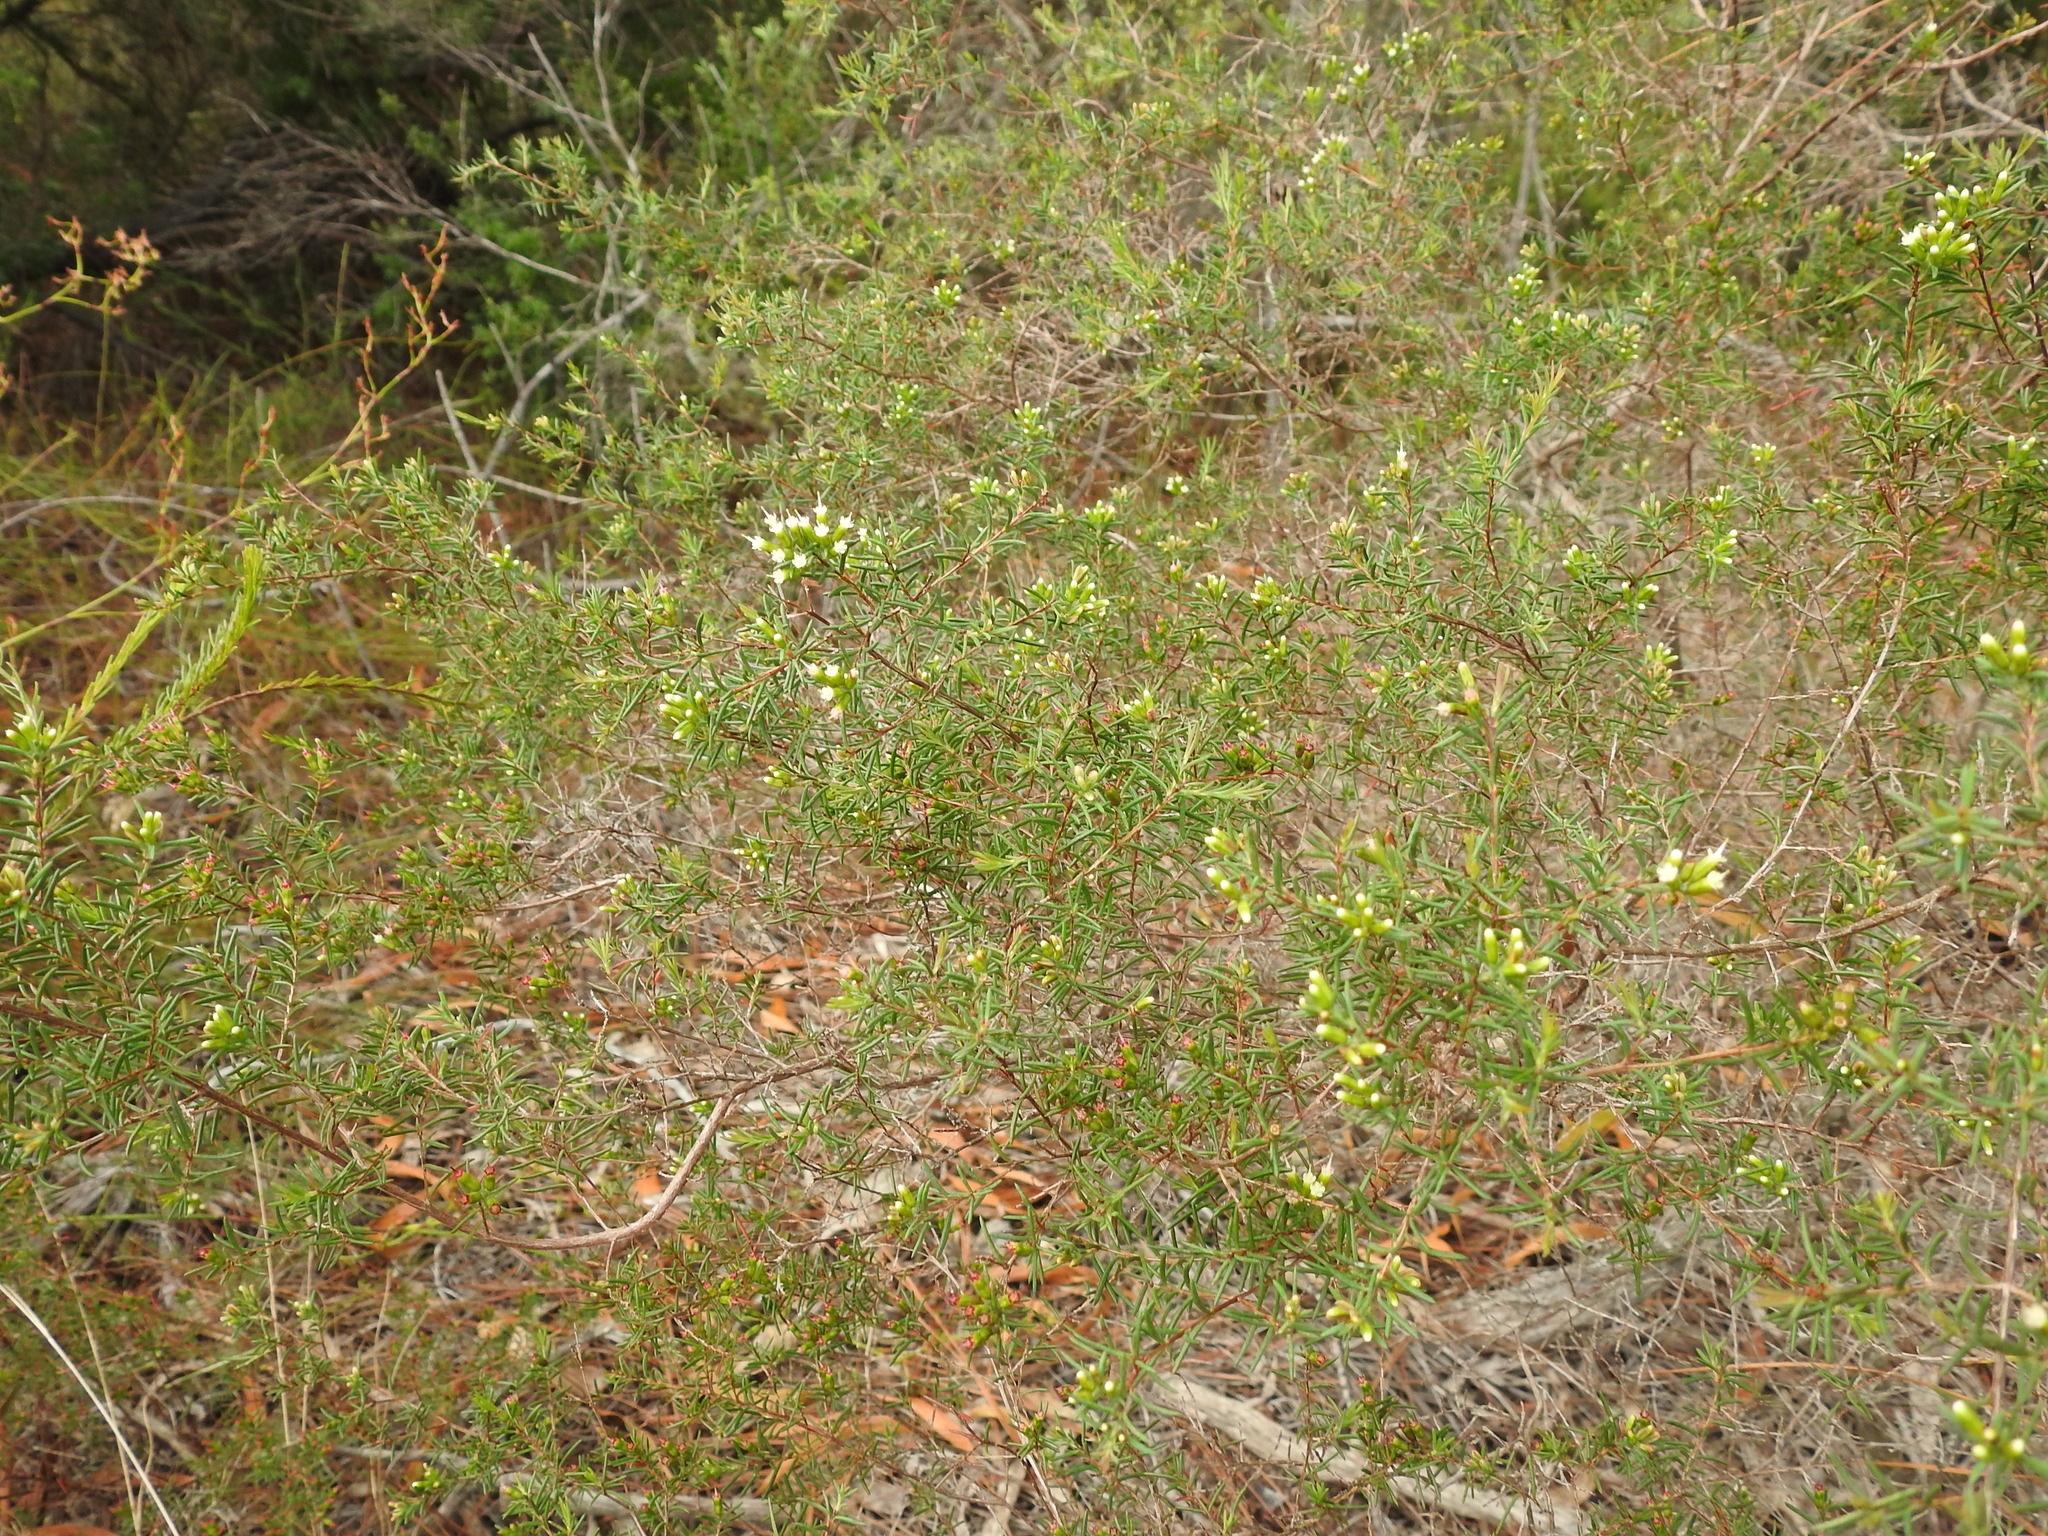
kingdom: Plantae
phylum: Tracheophyta
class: Magnoliopsida
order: Myrtales
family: Myrtaceae
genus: Homoranthus
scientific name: Homoranthus virgatus
